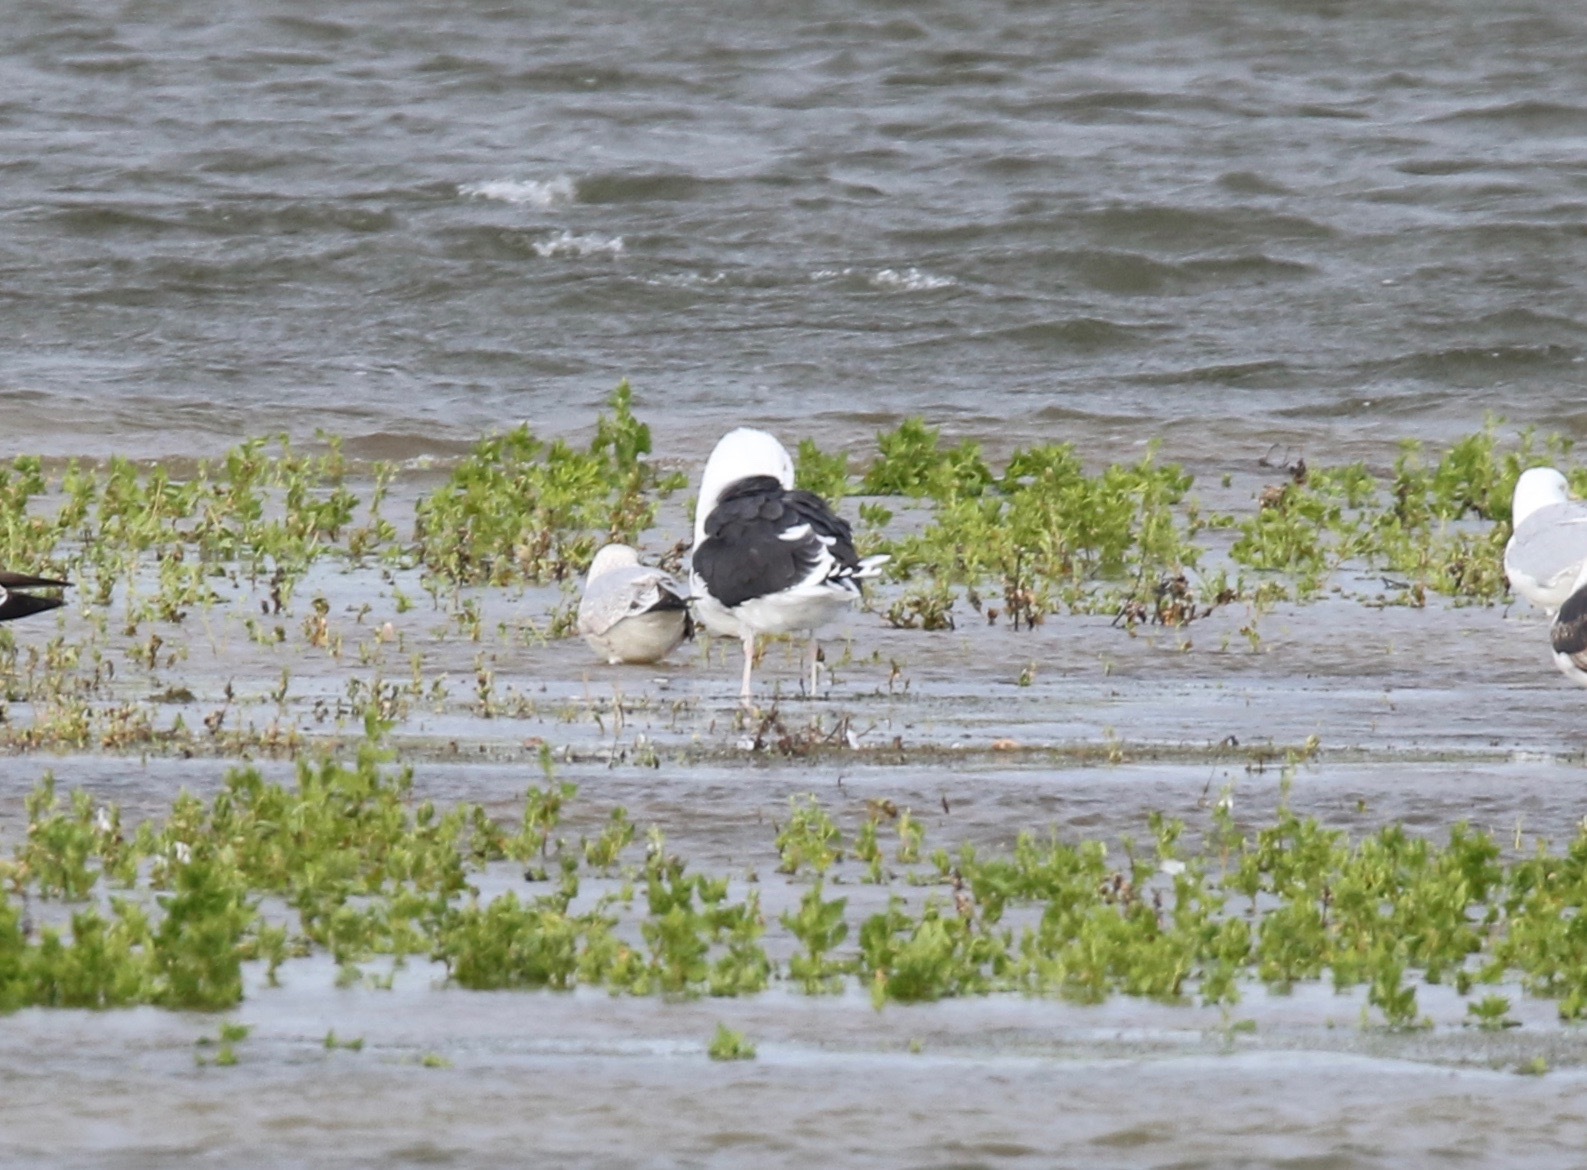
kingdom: Animalia
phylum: Chordata
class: Aves
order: Charadriiformes
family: Laridae
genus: Larus
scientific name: Larus marinus
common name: Great black-backed gull
